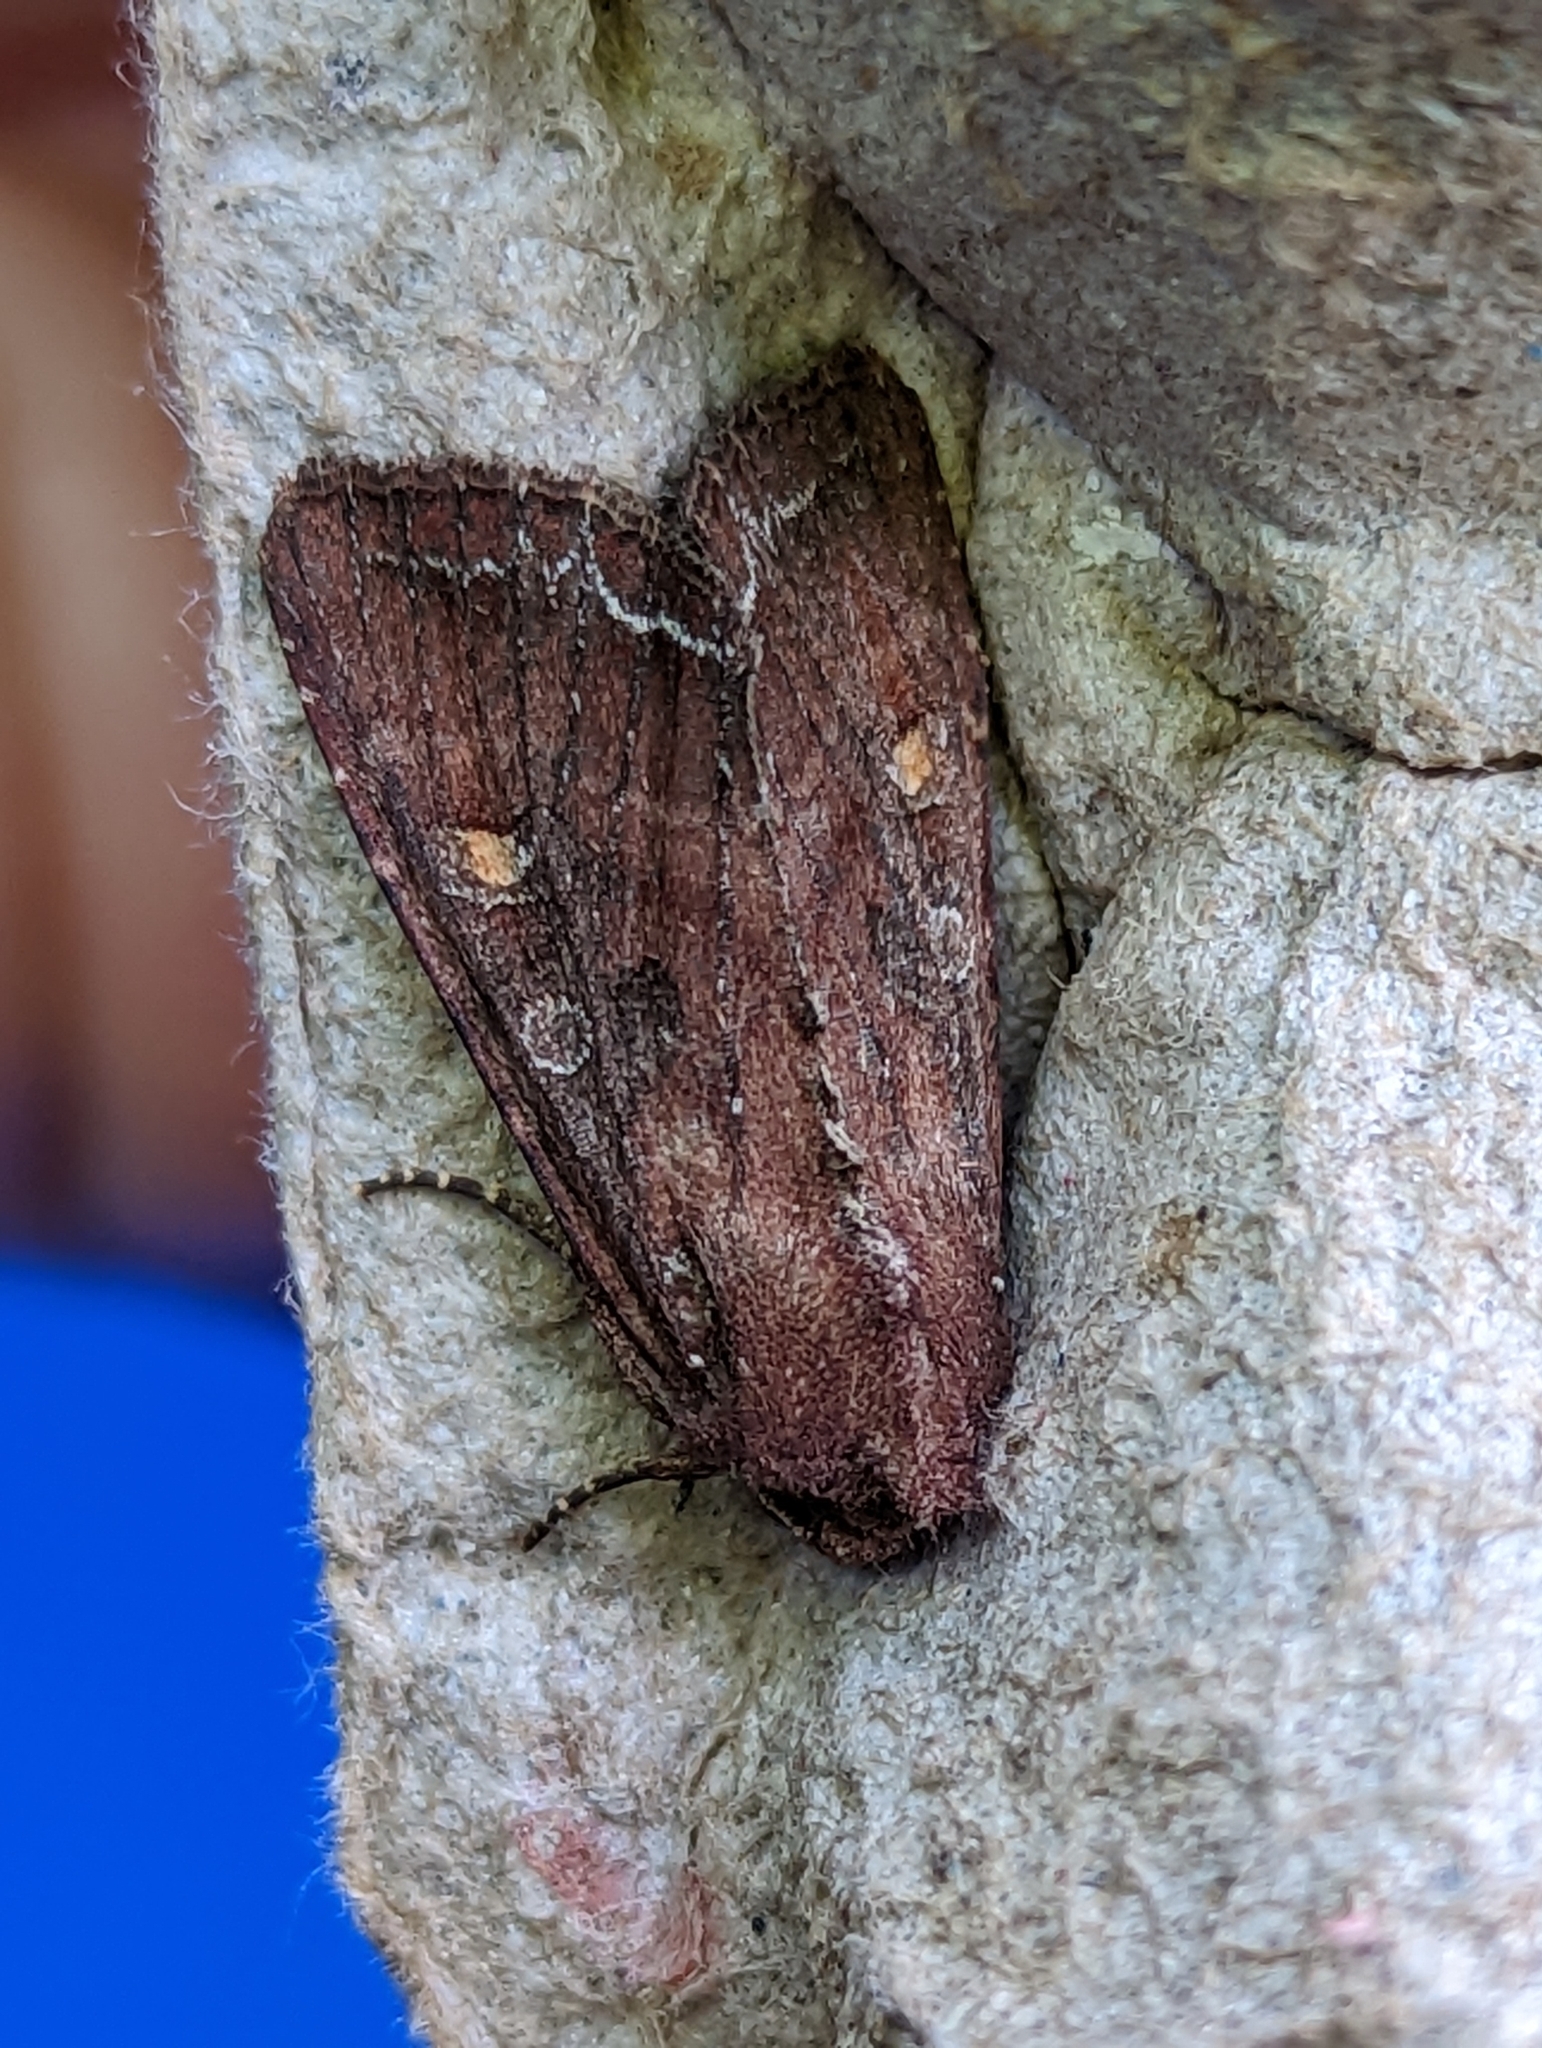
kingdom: Animalia
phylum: Arthropoda
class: Insecta
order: Lepidoptera
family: Noctuidae
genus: Lacanobia
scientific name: Lacanobia oleracea
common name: Bright-line brown-eye
